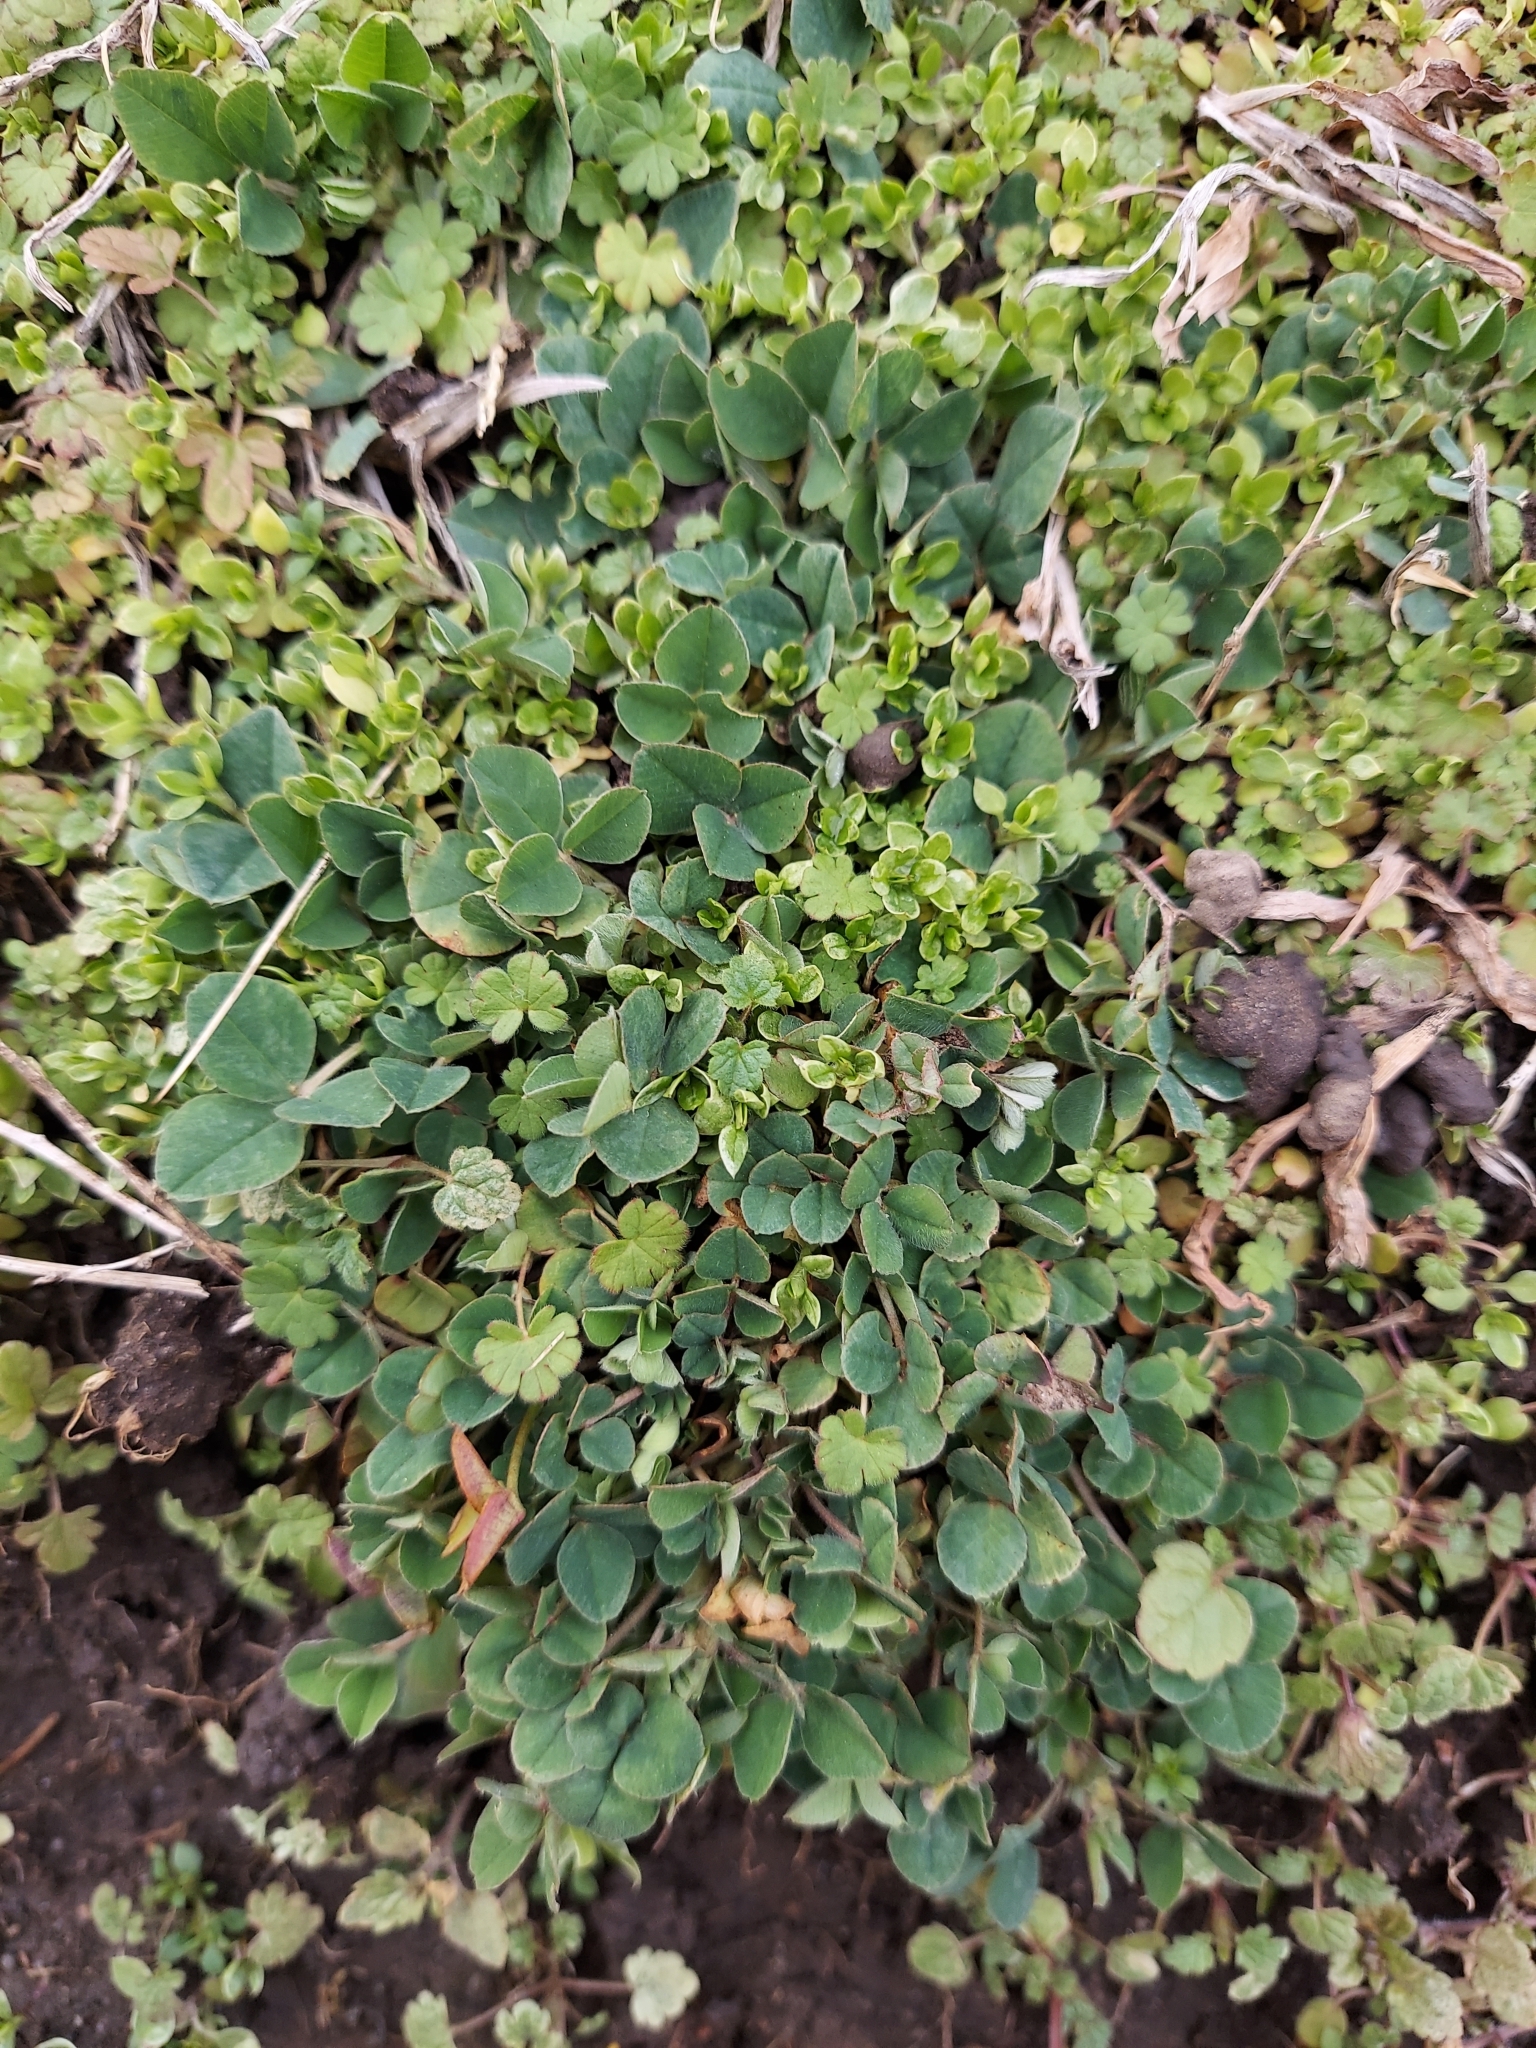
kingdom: Plantae
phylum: Tracheophyta
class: Magnoliopsida
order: Fabales
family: Fabaceae
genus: Medicago
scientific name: Medicago lupulina
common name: Black medick
